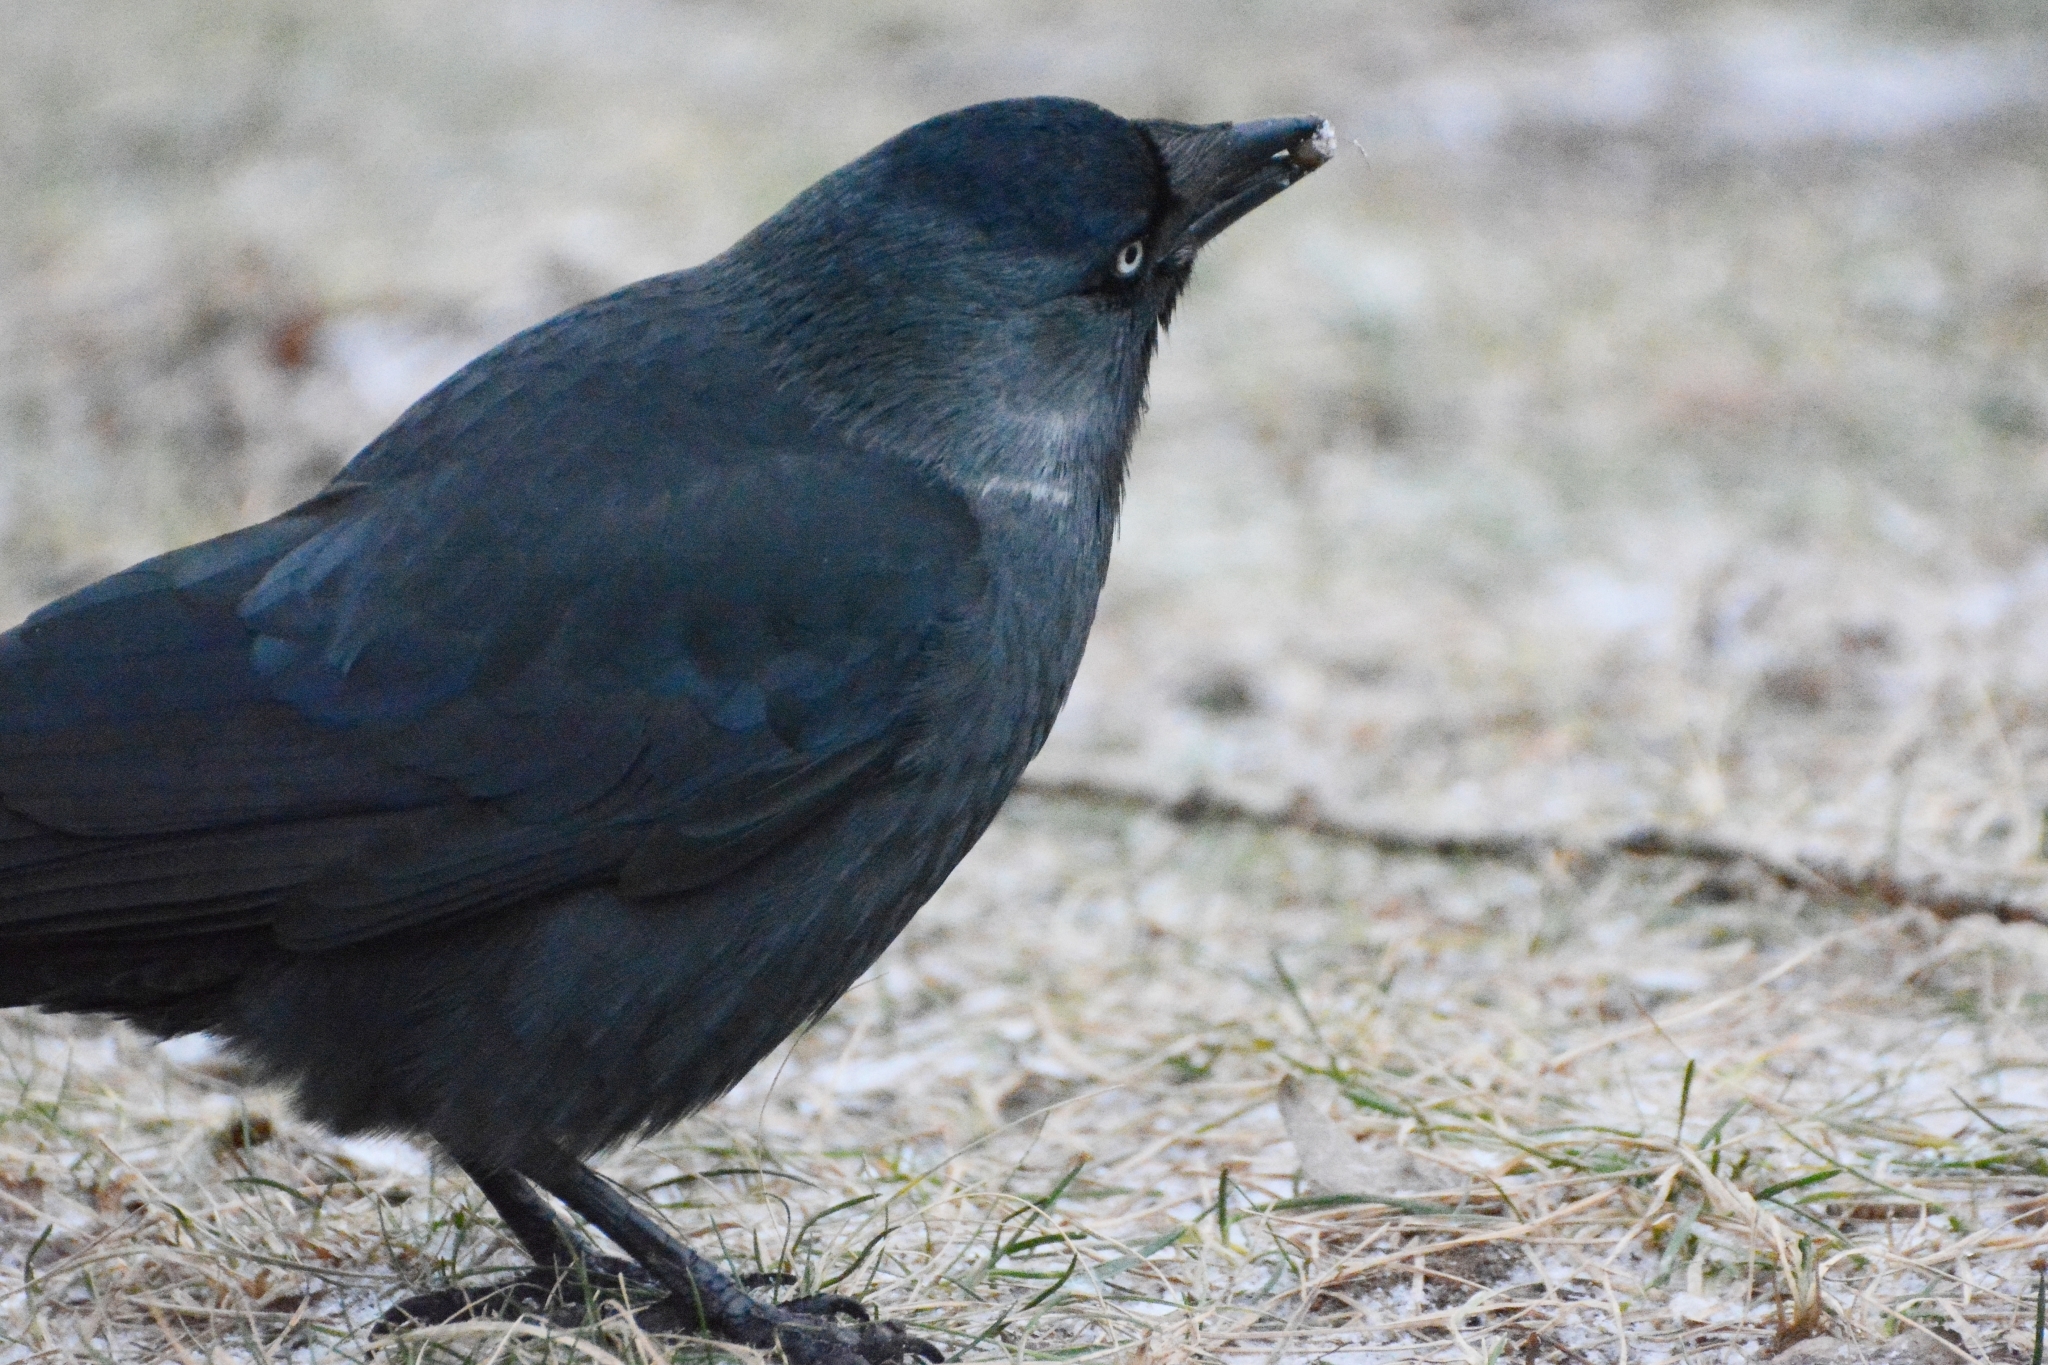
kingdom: Animalia
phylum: Chordata
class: Aves
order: Passeriformes
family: Corvidae
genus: Coloeus
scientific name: Coloeus monedula
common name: Western jackdaw
